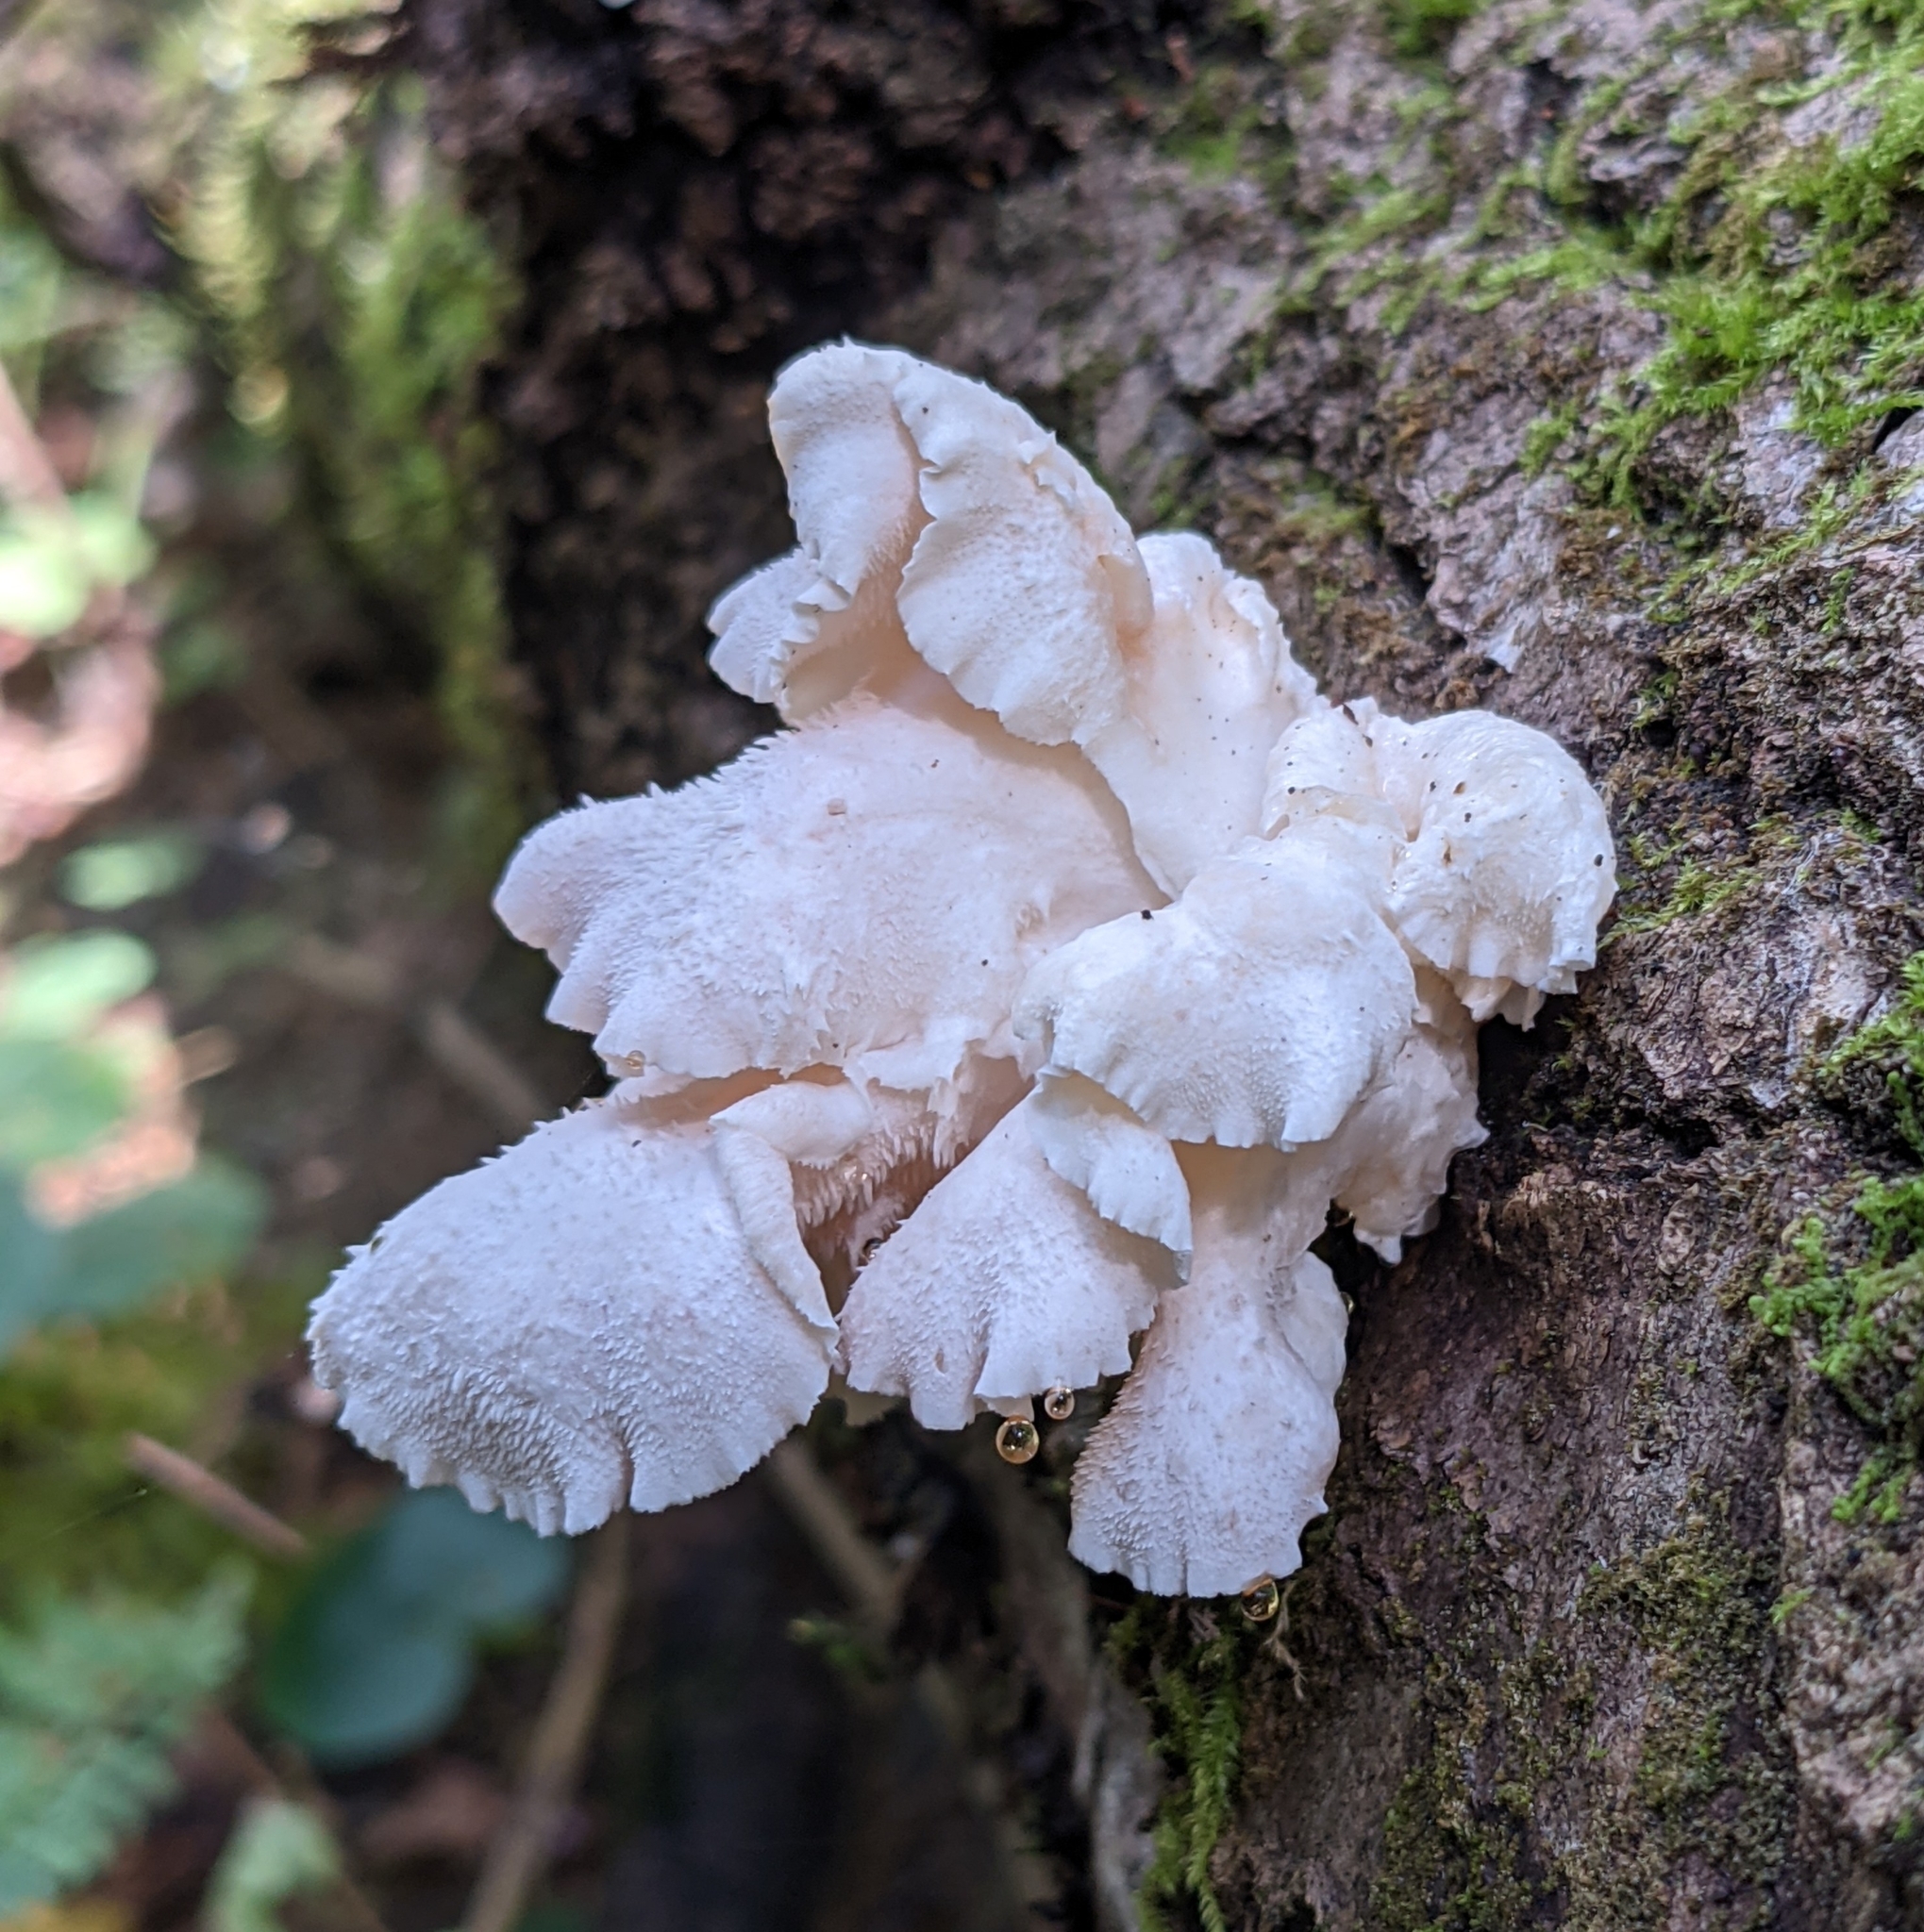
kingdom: Fungi
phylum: Basidiomycota
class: Agaricomycetes
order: Russulales
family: Hericiaceae
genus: Hericium
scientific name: Hericium cirrhatum
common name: Tiered tooth
